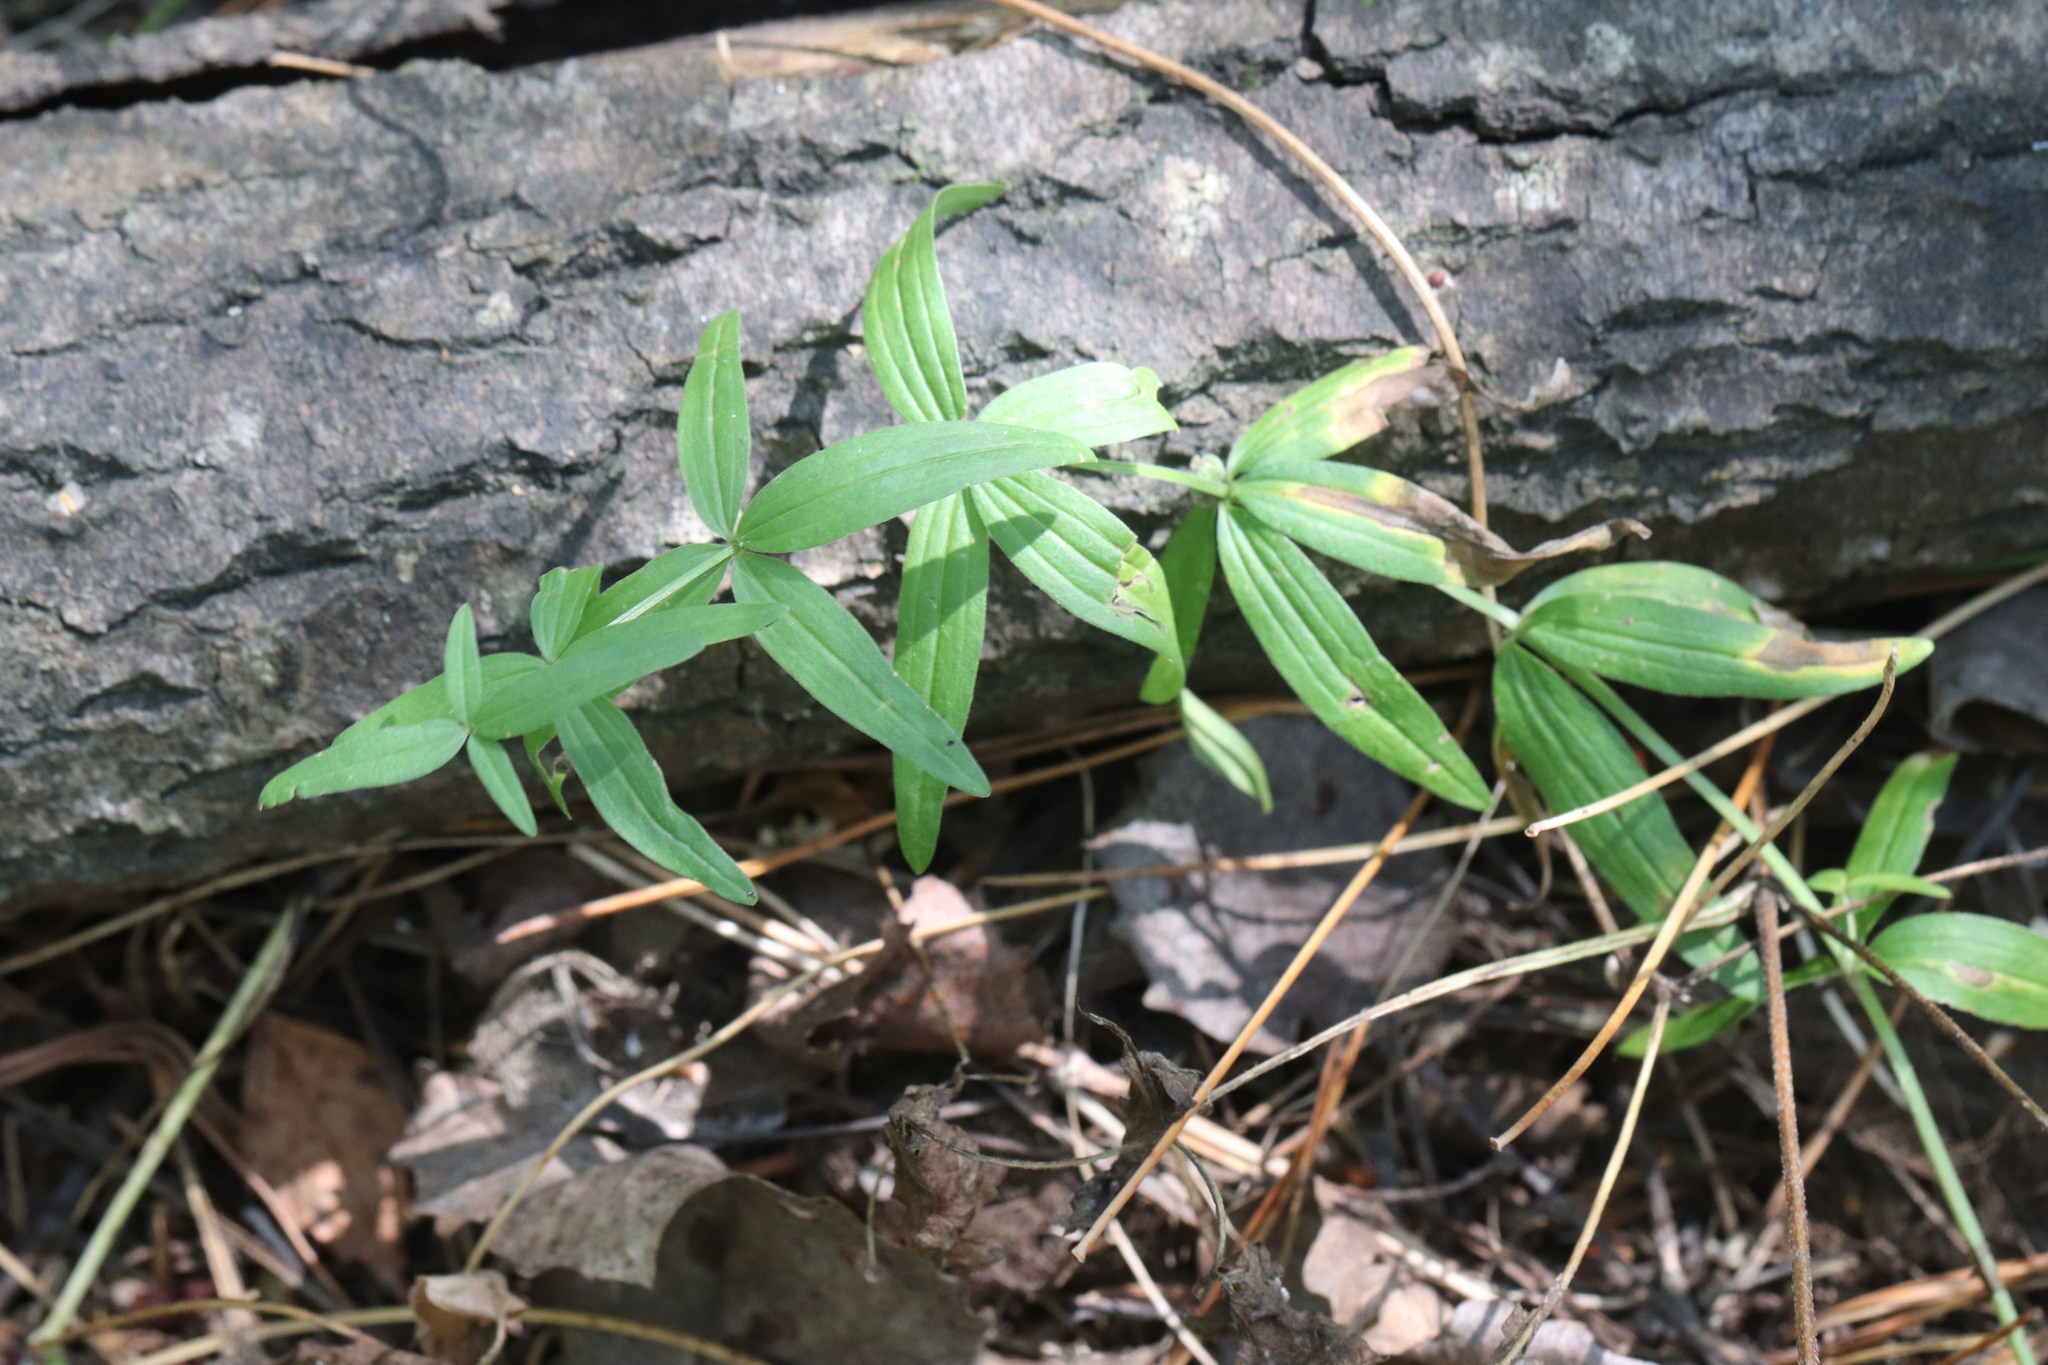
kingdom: Plantae
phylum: Tracheophyta
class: Magnoliopsida
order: Gentianales
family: Rubiaceae
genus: Galium
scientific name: Galium boreale
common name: Northern bedstraw
